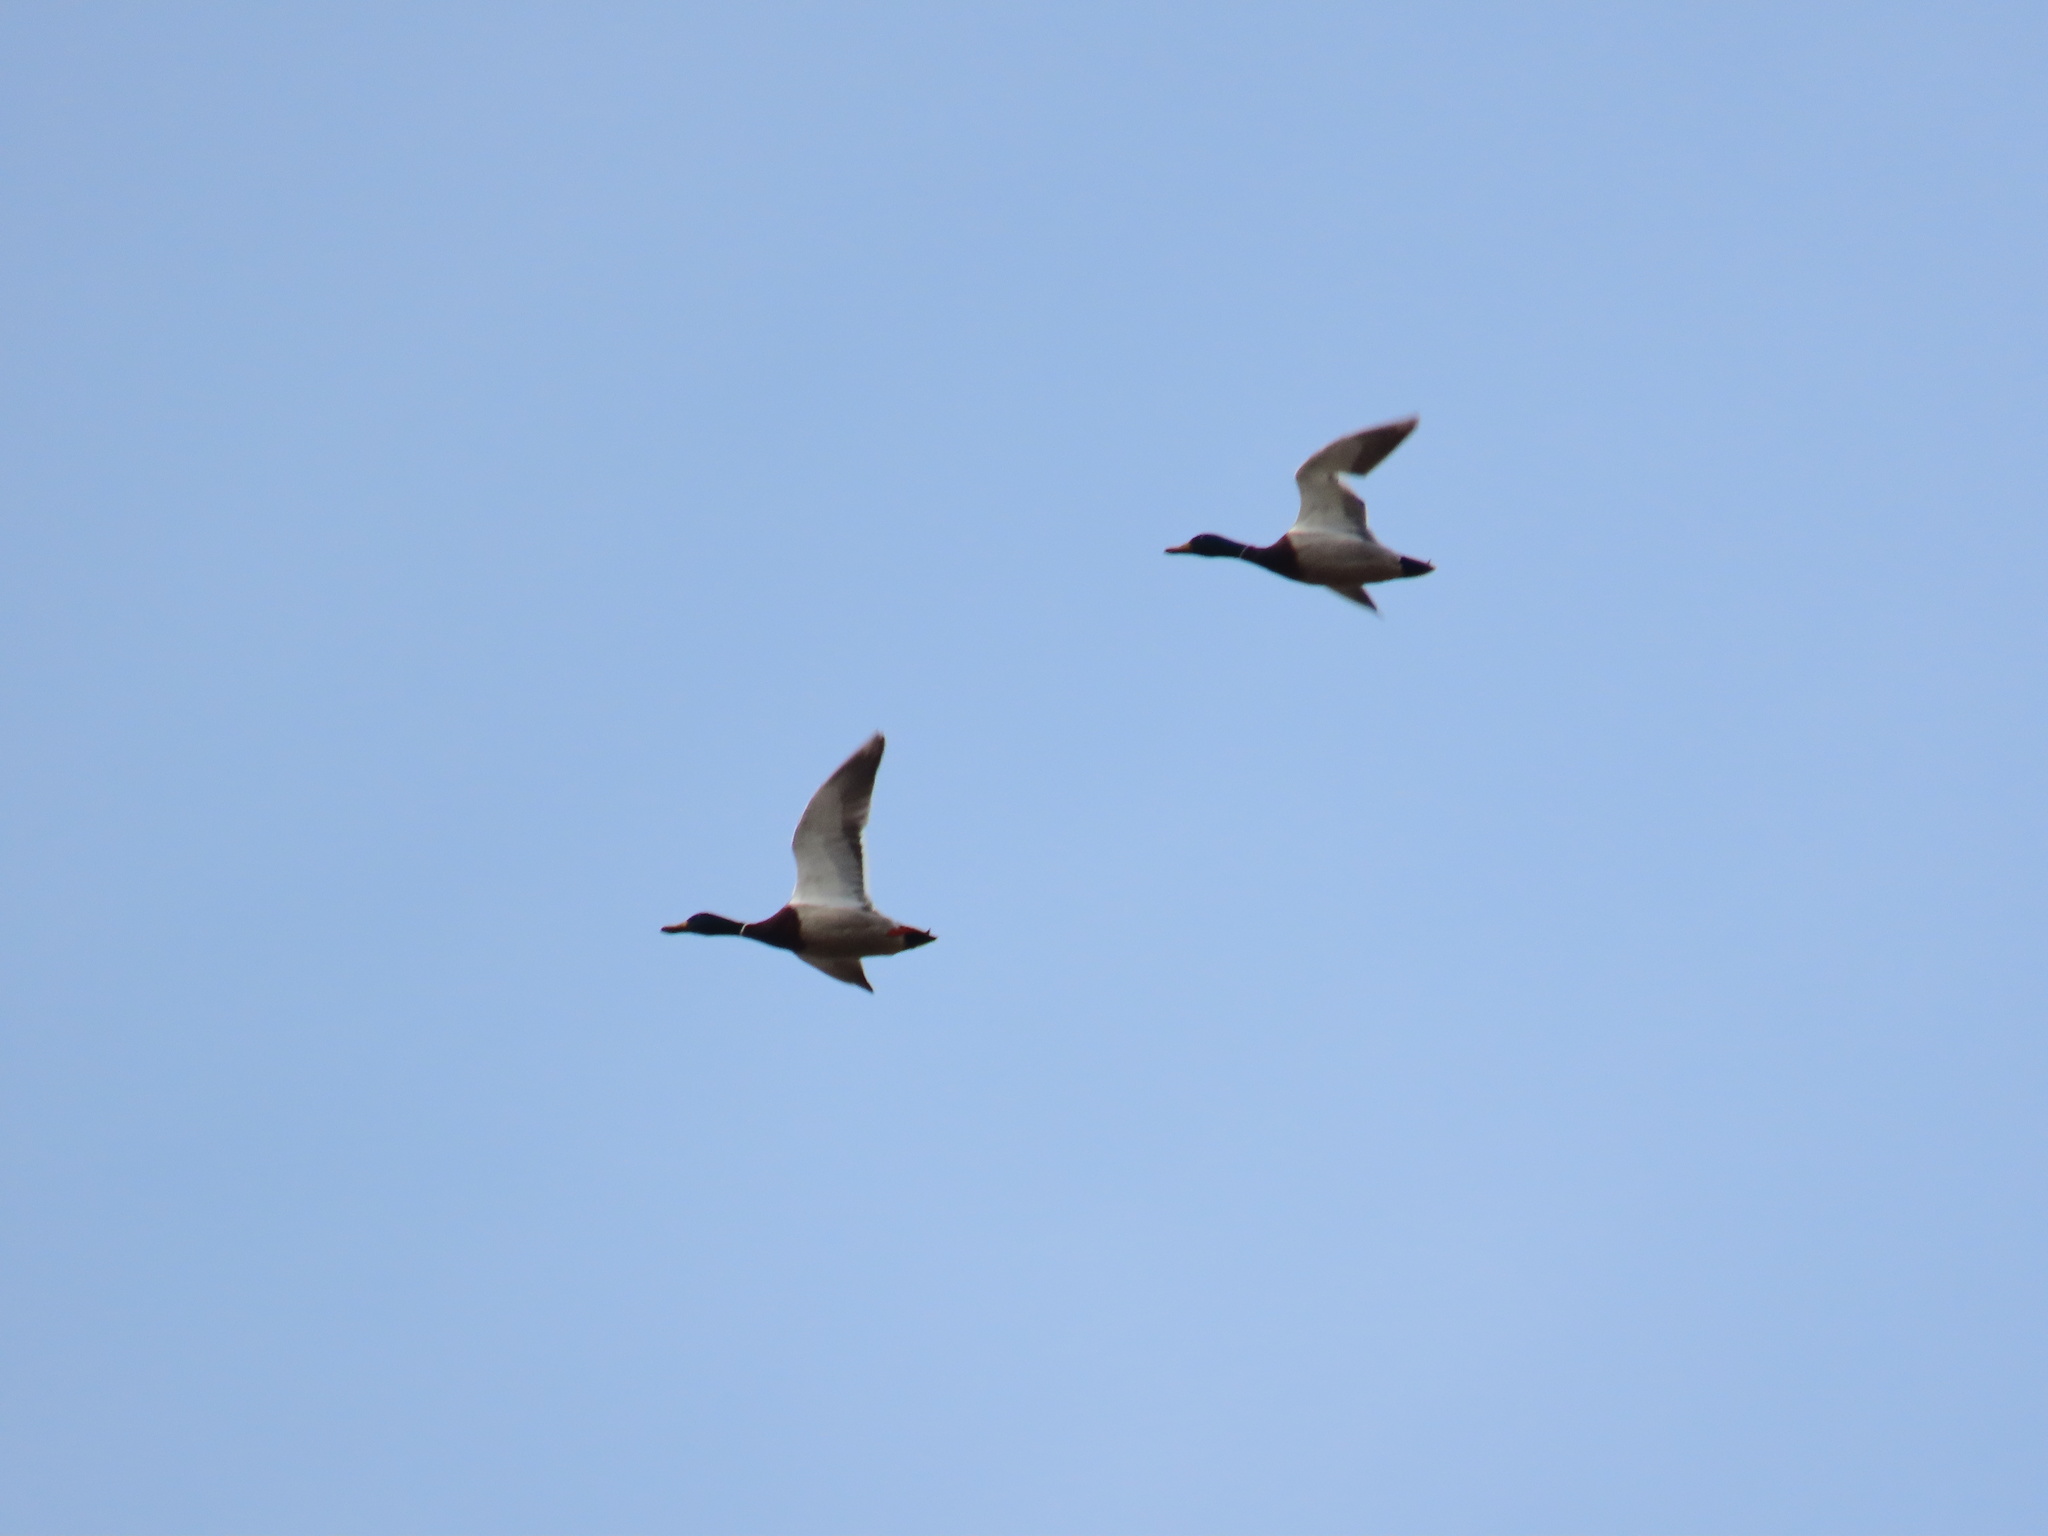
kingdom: Animalia
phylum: Chordata
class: Aves
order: Anseriformes
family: Anatidae
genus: Anas
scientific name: Anas platyrhynchos
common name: Mallard
